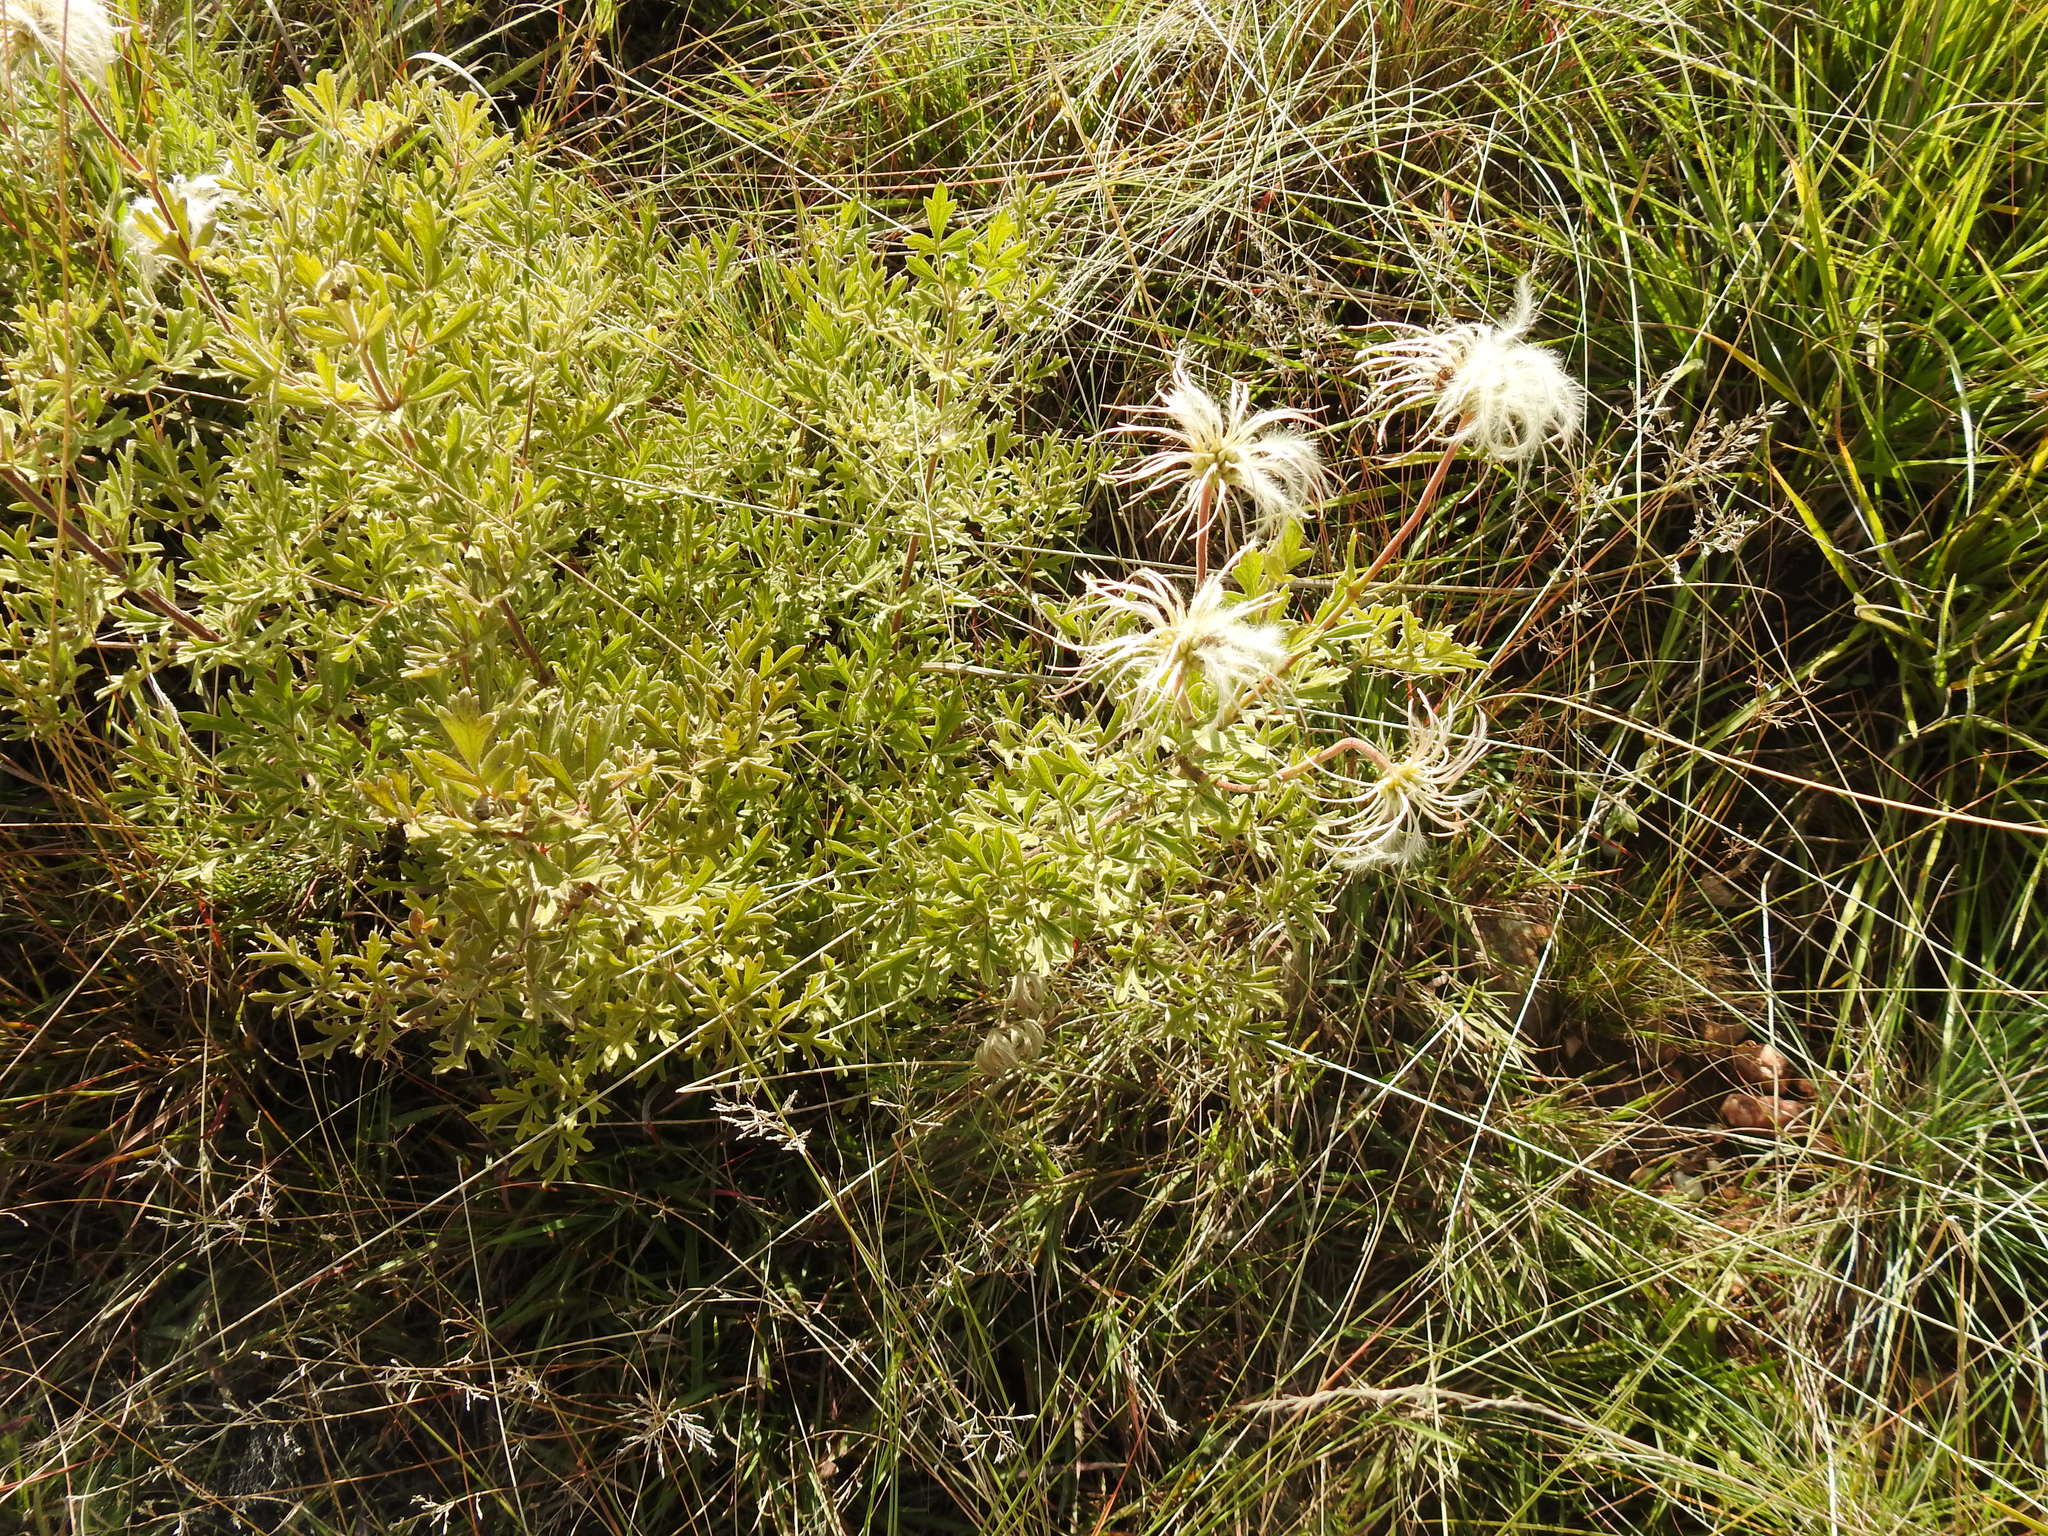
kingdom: Plantae
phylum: Tracheophyta
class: Magnoliopsida
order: Ranunculales
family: Ranunculaceae
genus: Clematis
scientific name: Clematis villosa
